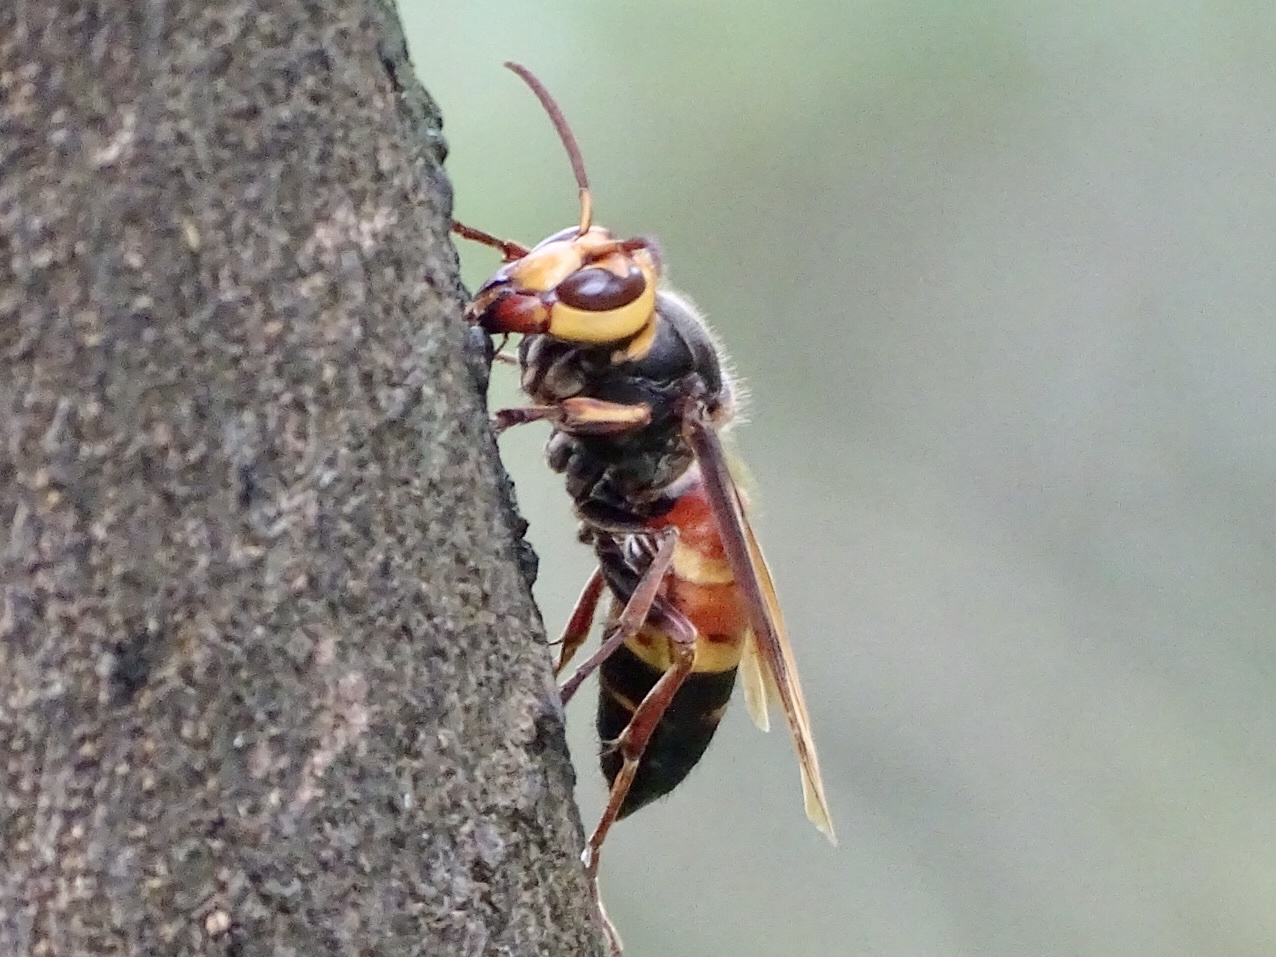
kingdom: Animalia
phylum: Arthropoda
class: Insecta
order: Hymenoptera
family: Vespidae
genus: Vespa
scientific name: Vespa ducalis
